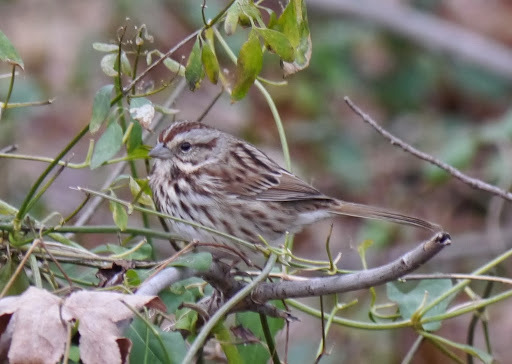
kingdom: Animalia
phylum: Chordata
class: Aves
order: Passeriformes
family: Passerellidae
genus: Melospiza
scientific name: Melospiza melodia
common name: Song sparrow
